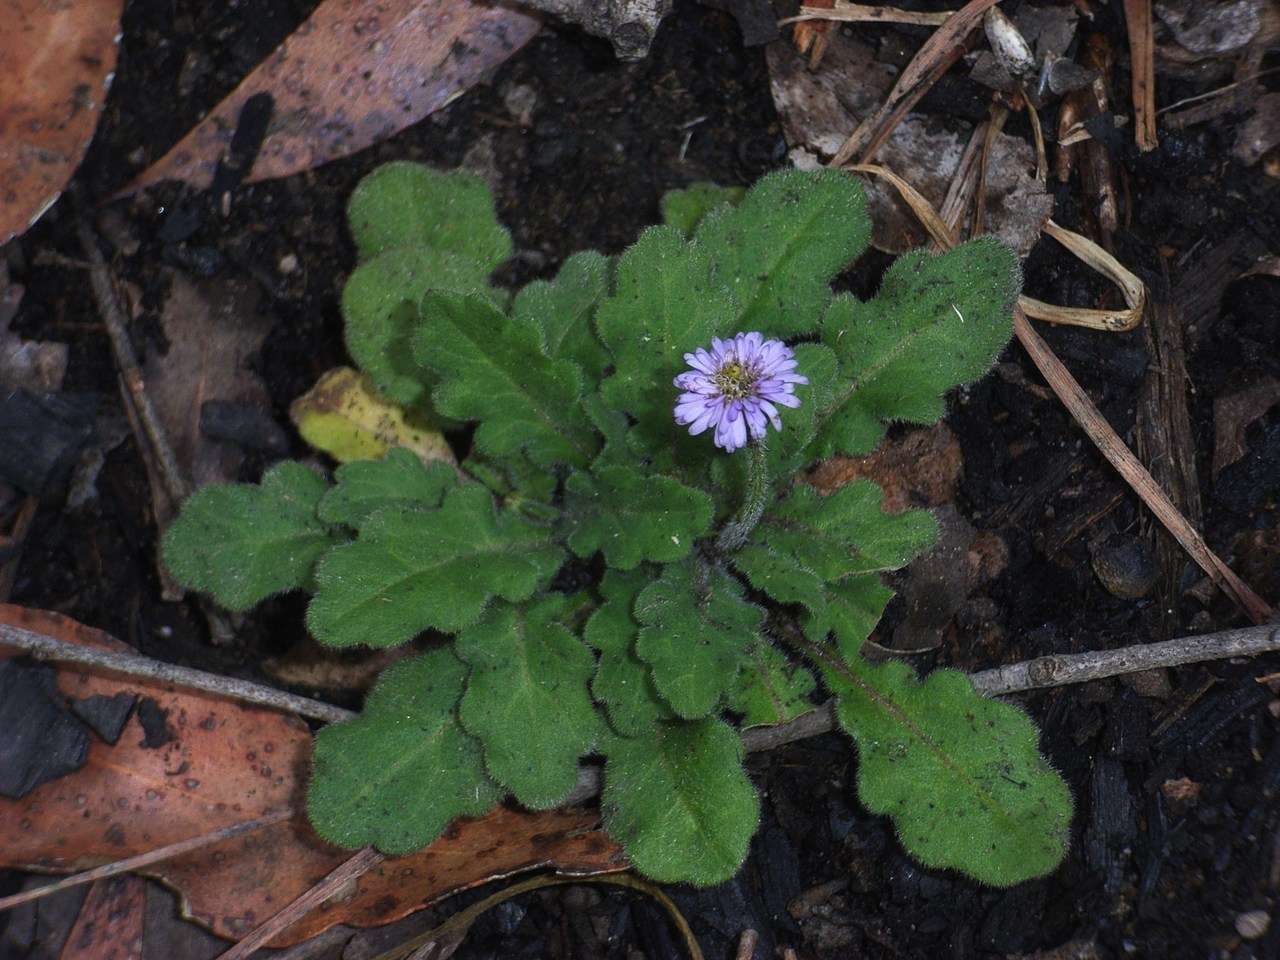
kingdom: Plantae
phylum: Tracheophyta
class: Magnoliopsida
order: Asterales
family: Asteraceae
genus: Lagenophora
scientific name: Lagenophora stipitata
